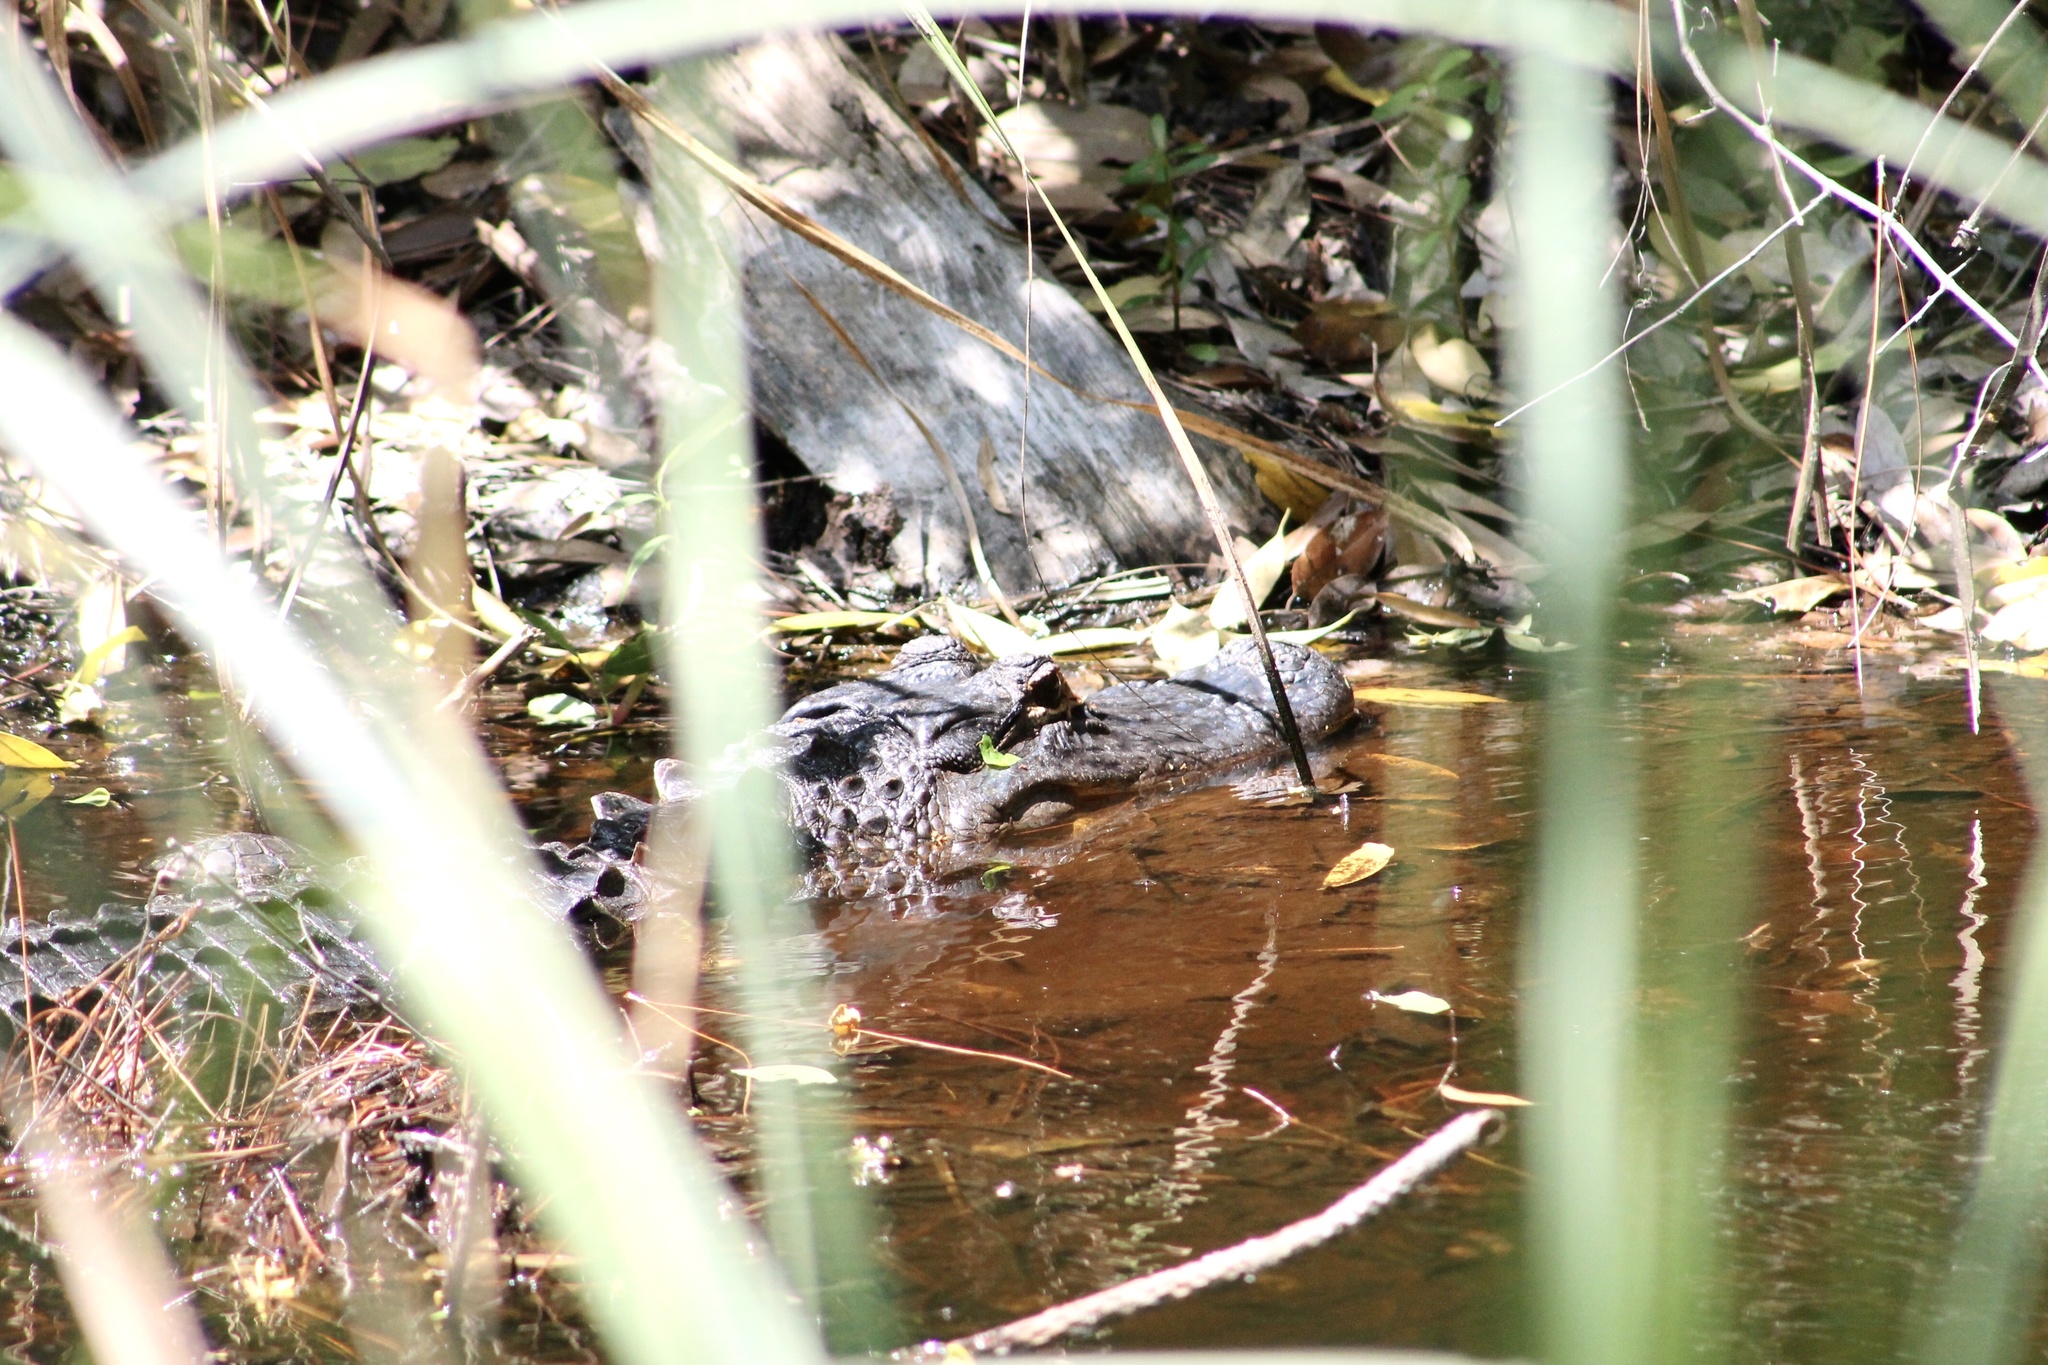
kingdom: Animalia
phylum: Chordata
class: Crocodylia
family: Alligatoridae
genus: Alligator
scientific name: Alligator mississippiensis
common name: American alligator
